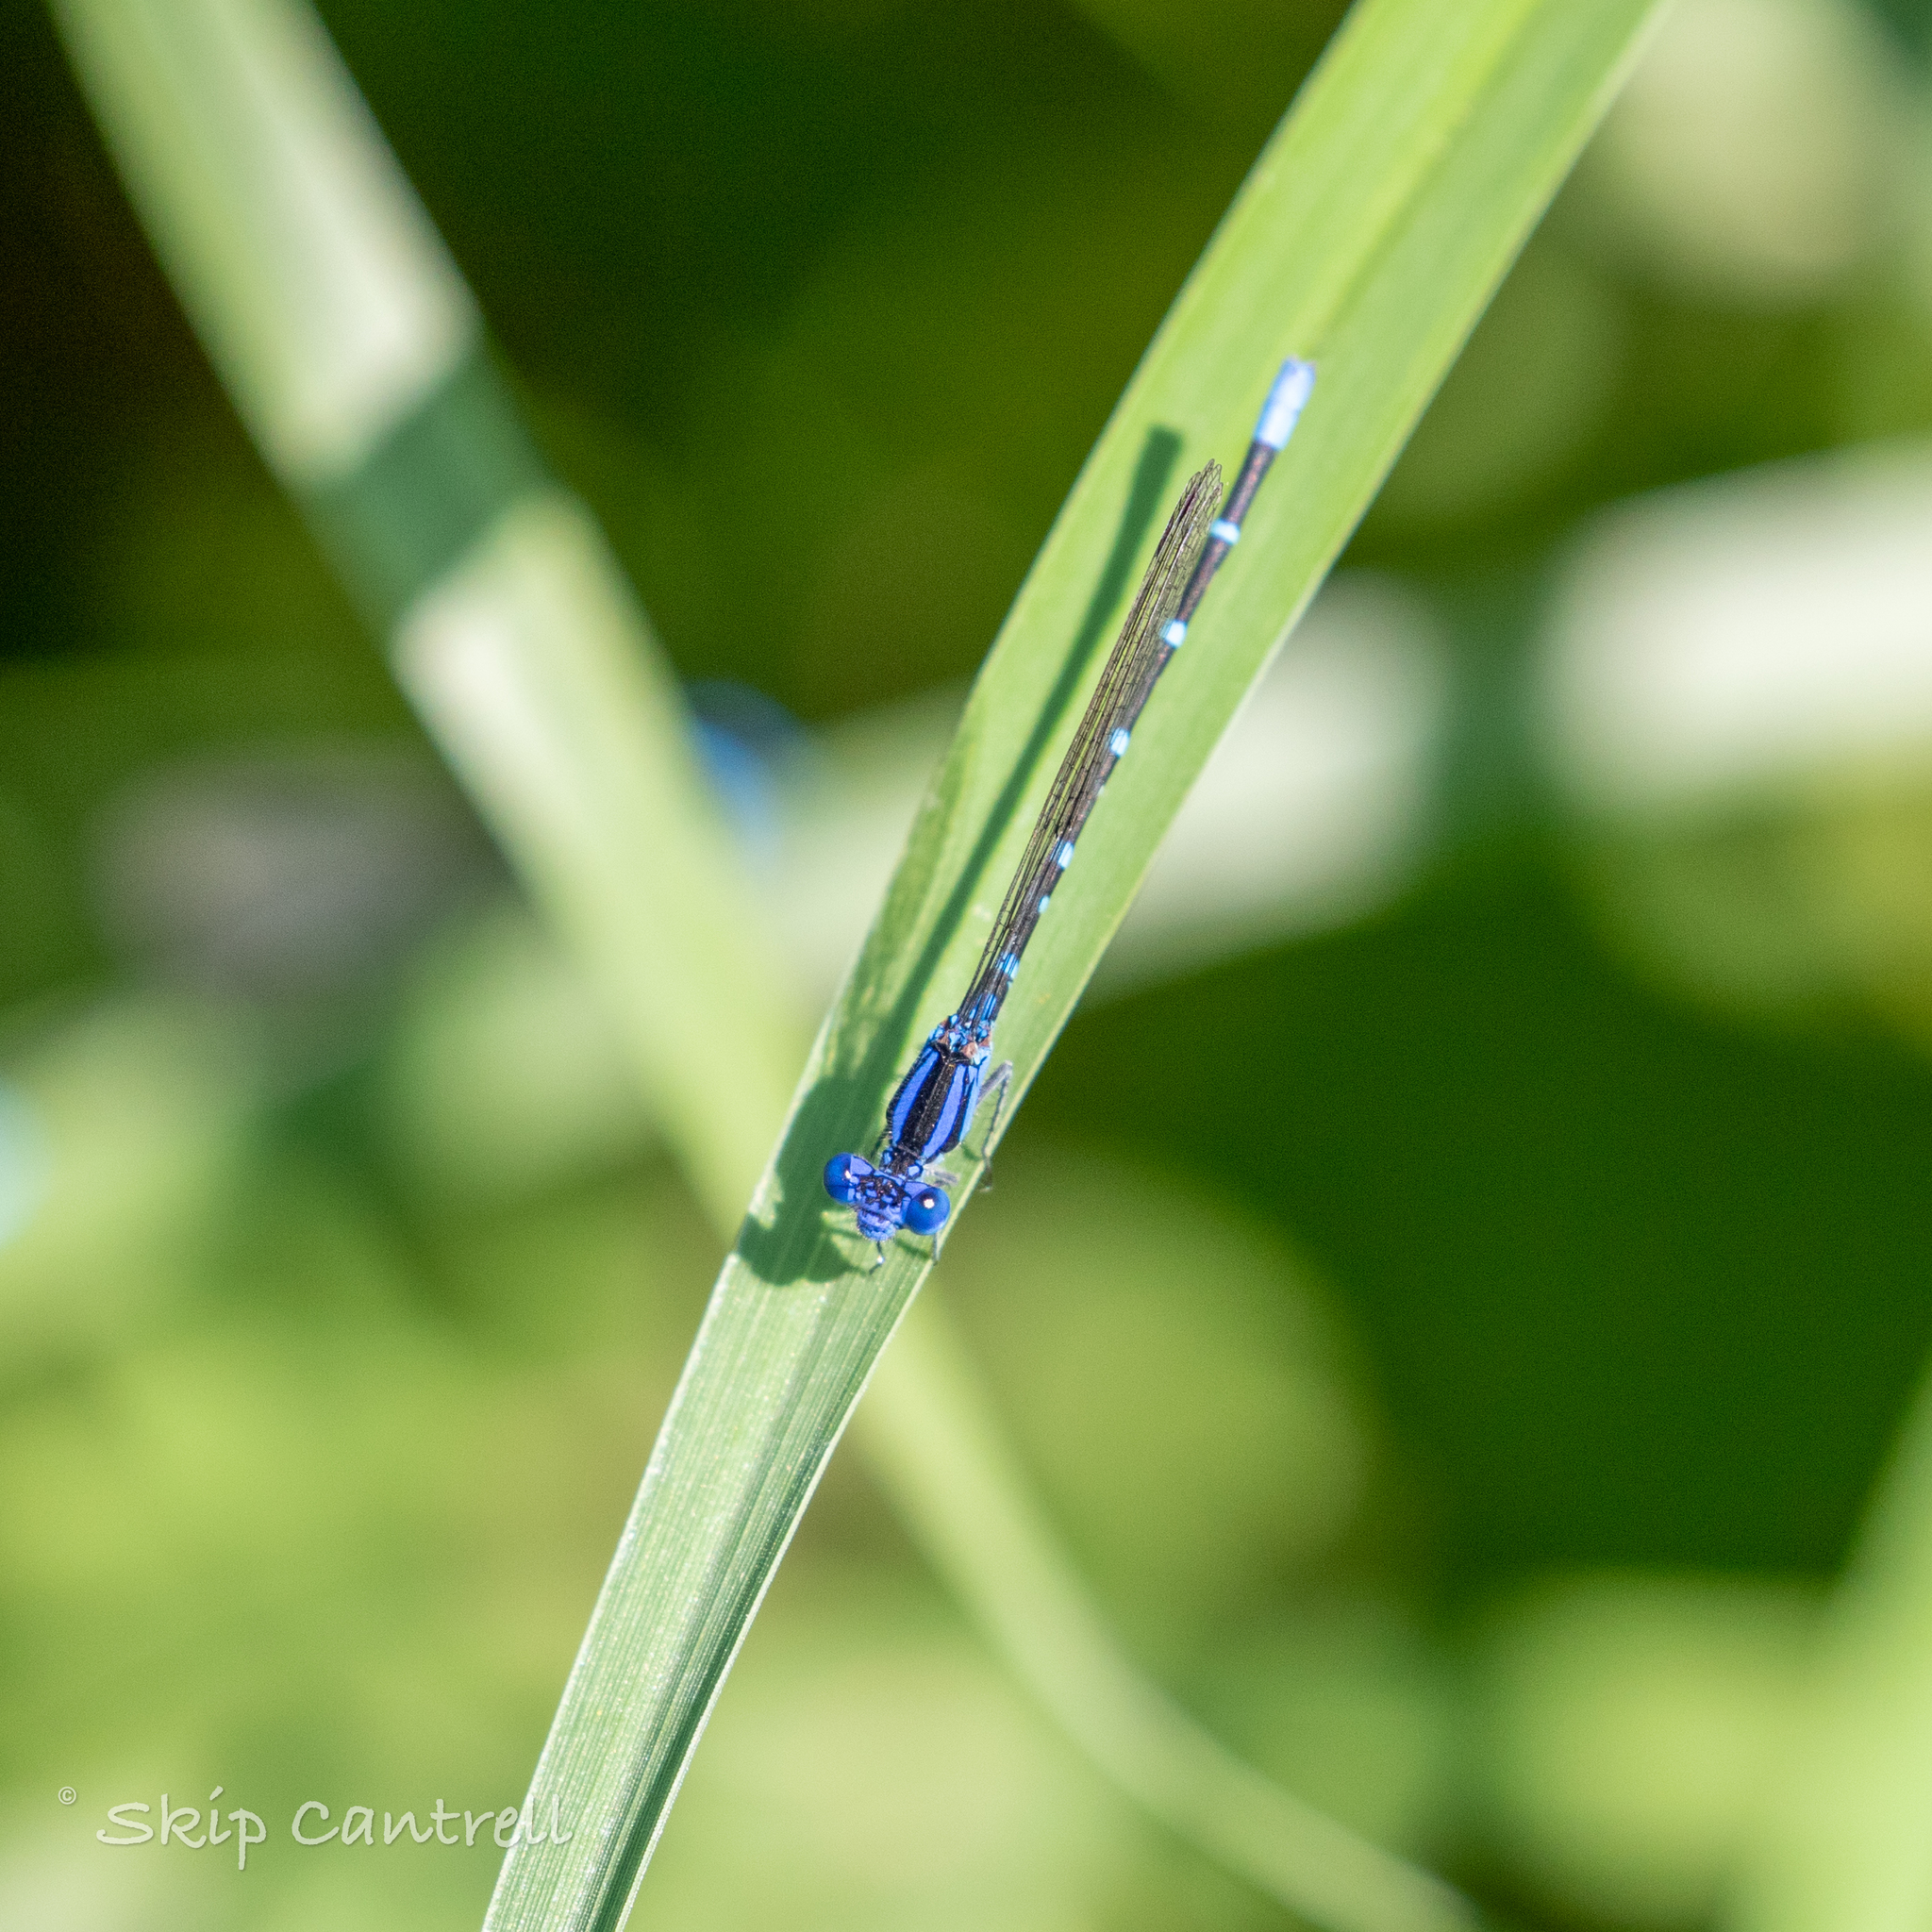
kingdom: Animalia
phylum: Arthropoda
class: Insecta
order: Odonata
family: Coenagrionidae
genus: Argia
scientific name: Argia sedula
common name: Blue-ringed dancer
